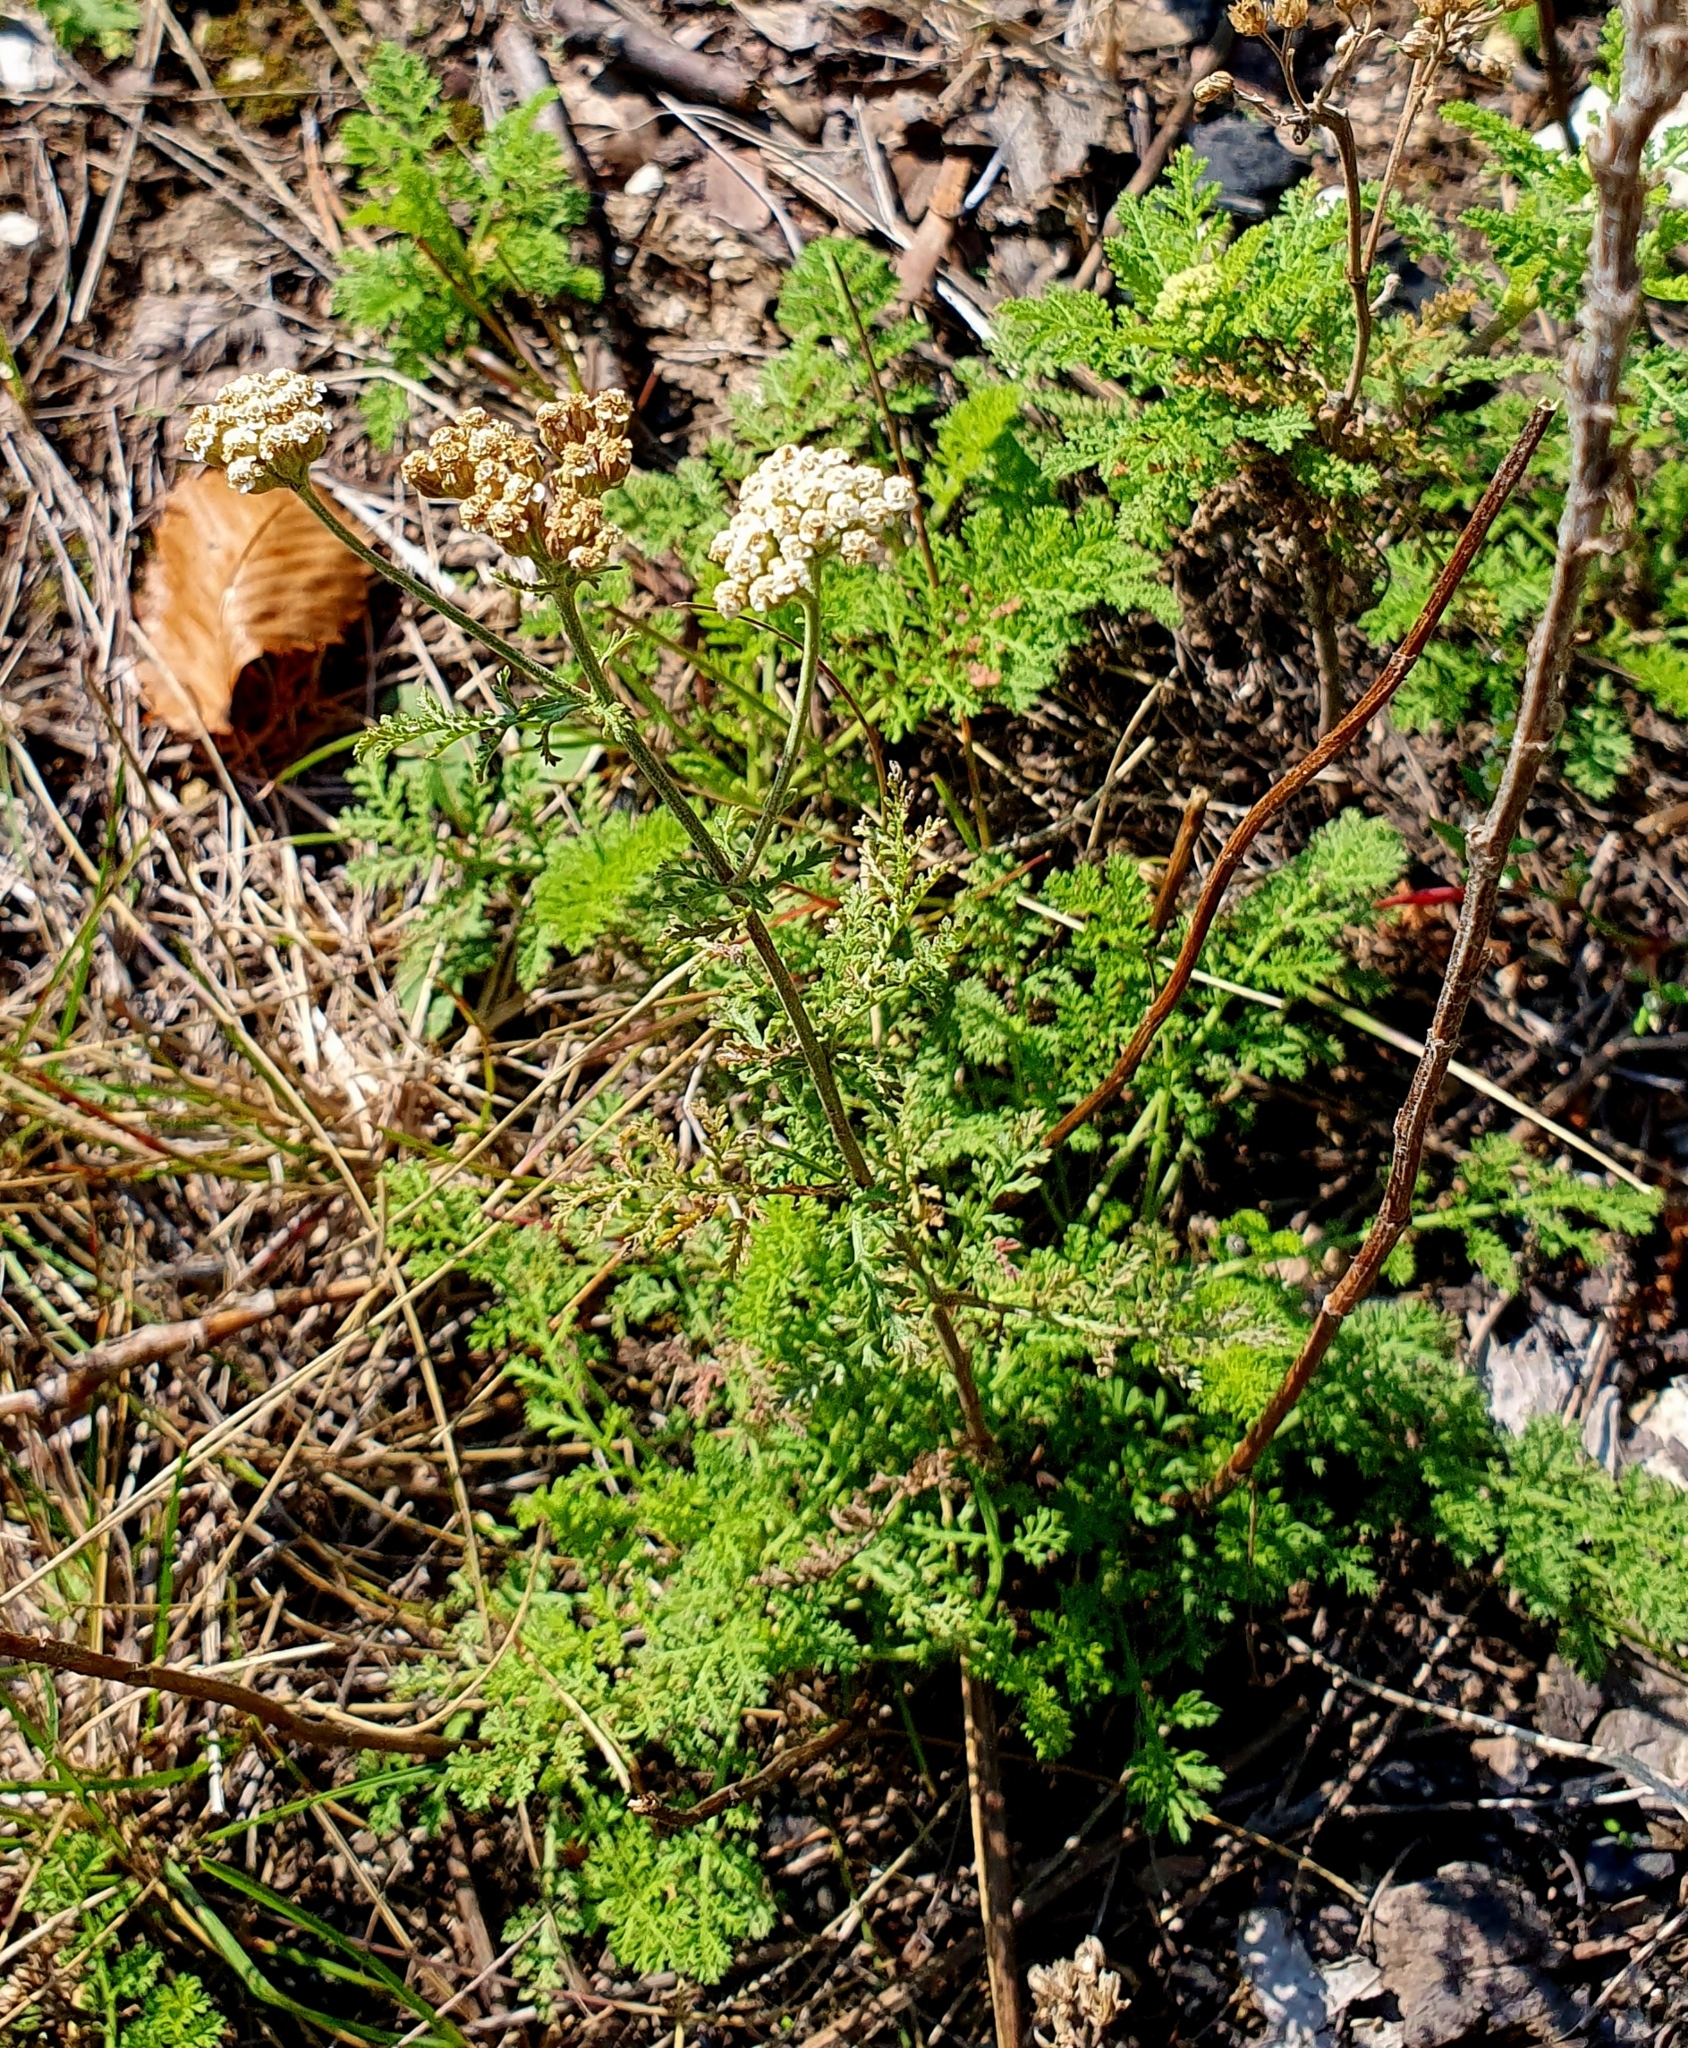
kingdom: Plantae
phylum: Tracheophyta
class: Magnoliopsida
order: Asterales
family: Asteraceae
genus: Achillea
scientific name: Achillea nobilis
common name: Noble yarrow
